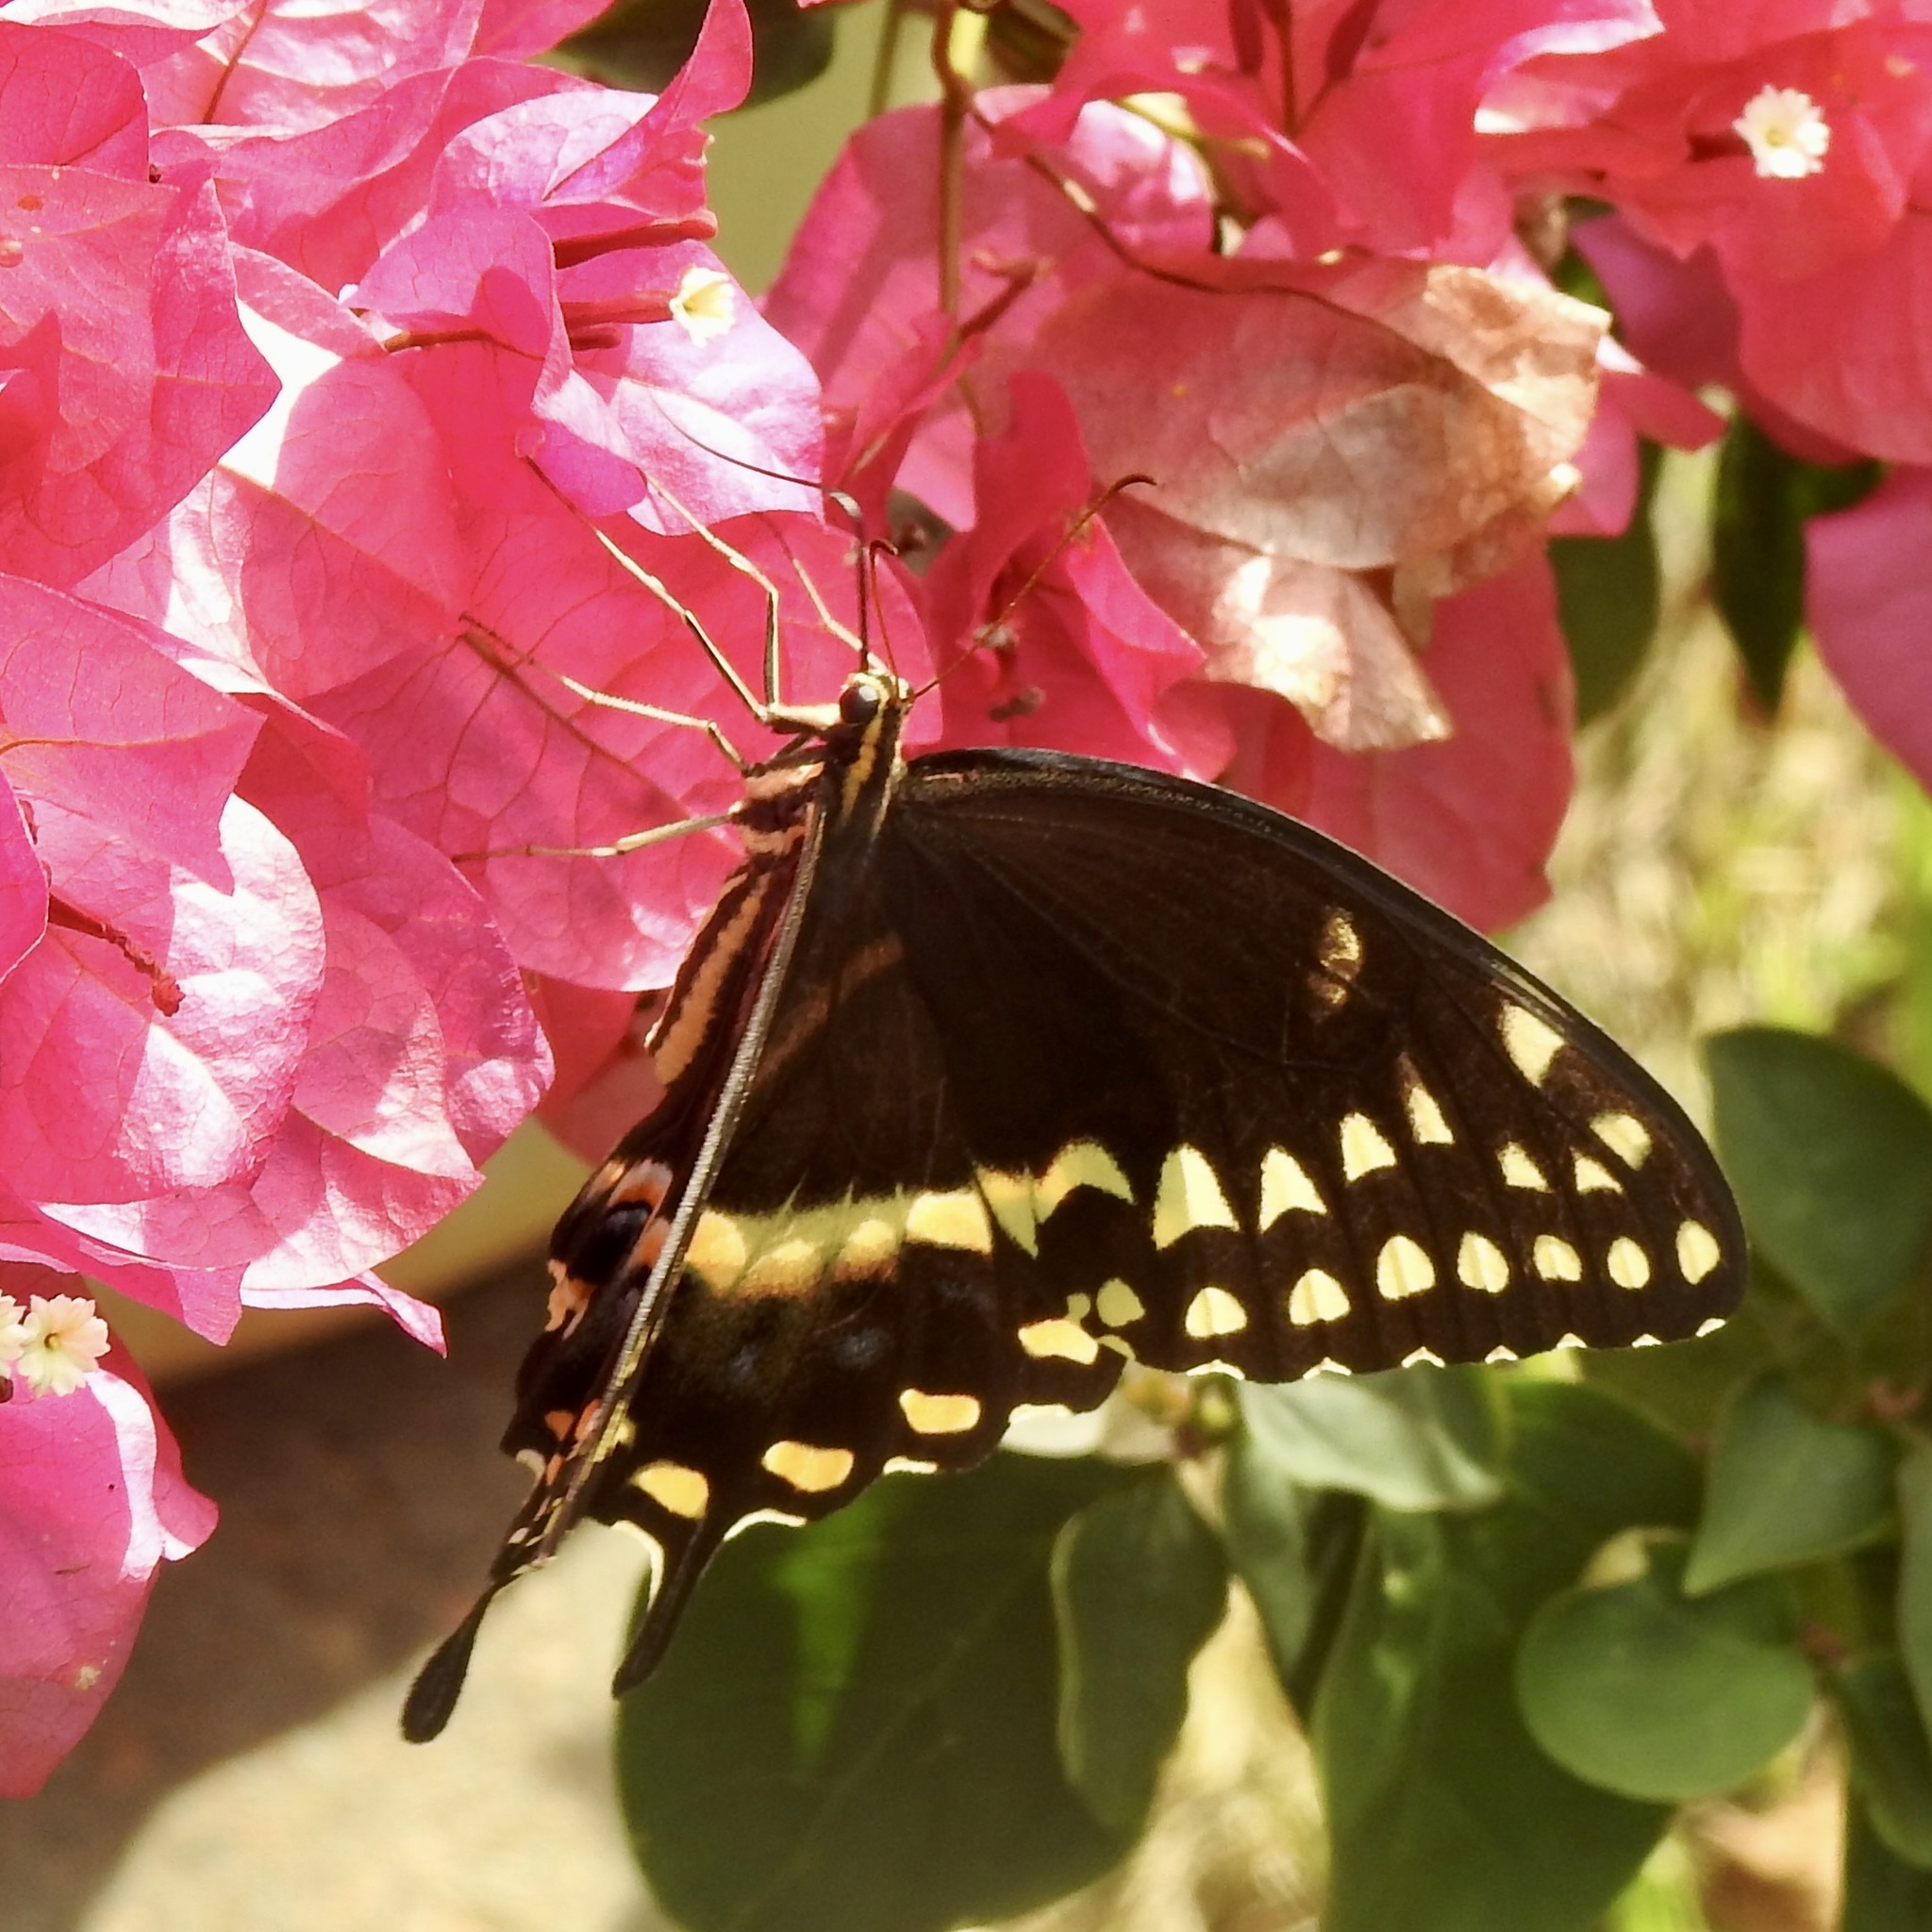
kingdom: Animalia
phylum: Arthropoda
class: Insecta
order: Lepidoptera
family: Papilionidae
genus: Papilio
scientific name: Papilio palamedes
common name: Palamedes swallowtail
